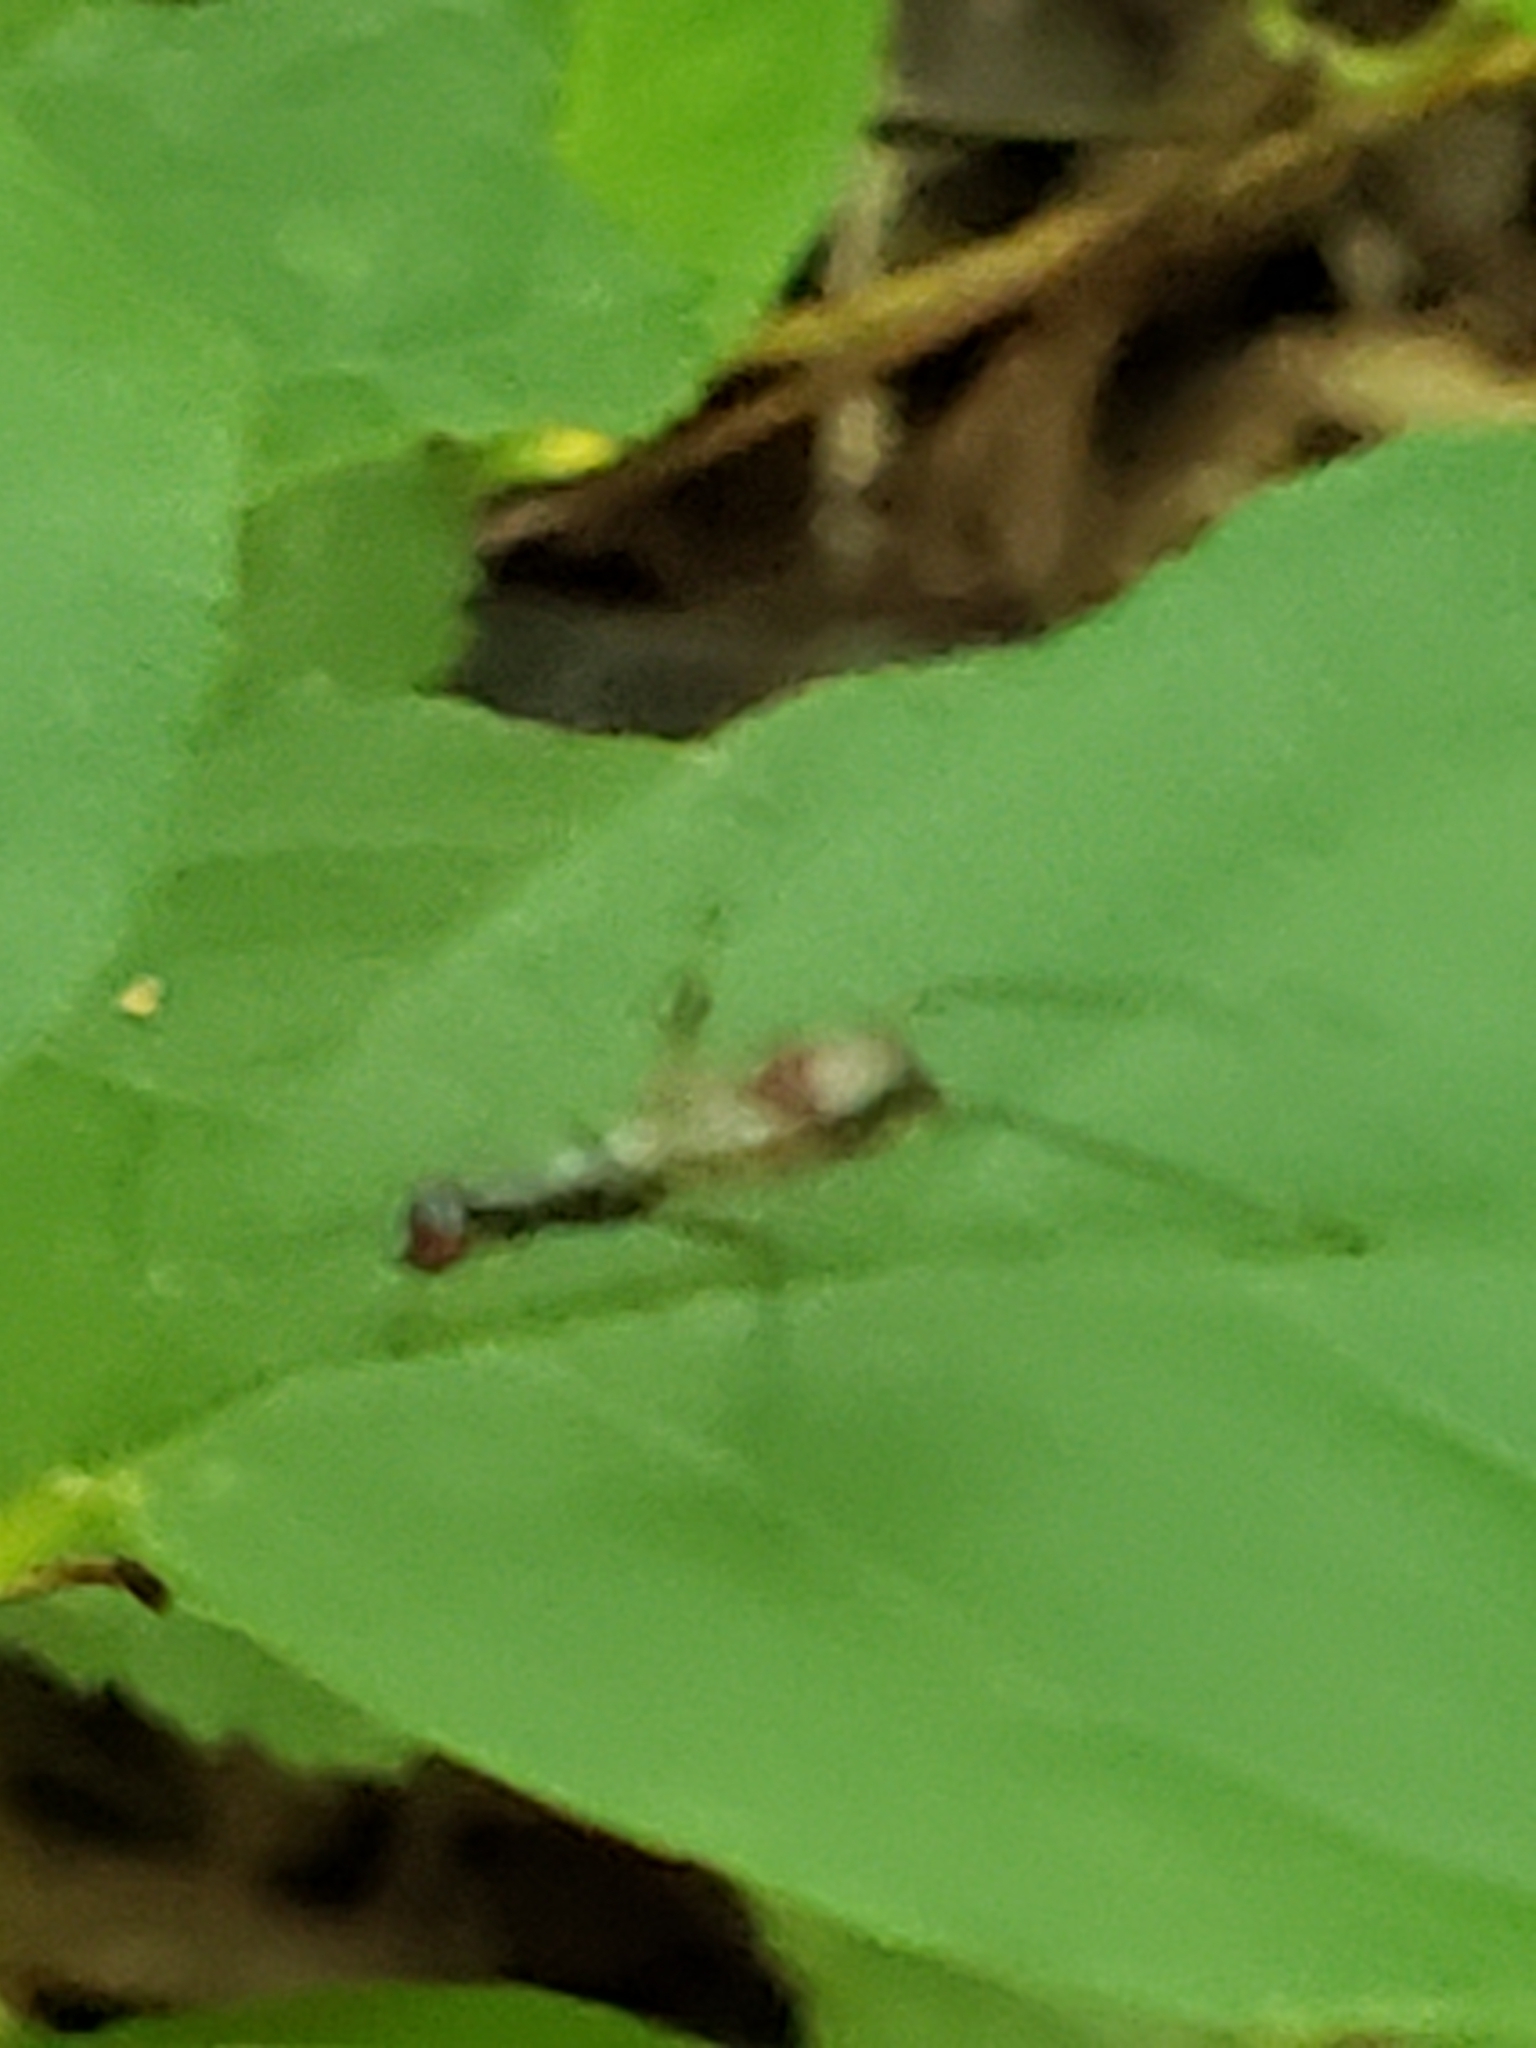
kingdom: Animalia
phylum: Arthropoda
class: Insecta
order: Diptera
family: Micropezidae
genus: Rainieria
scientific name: Rainieria antennaepes
